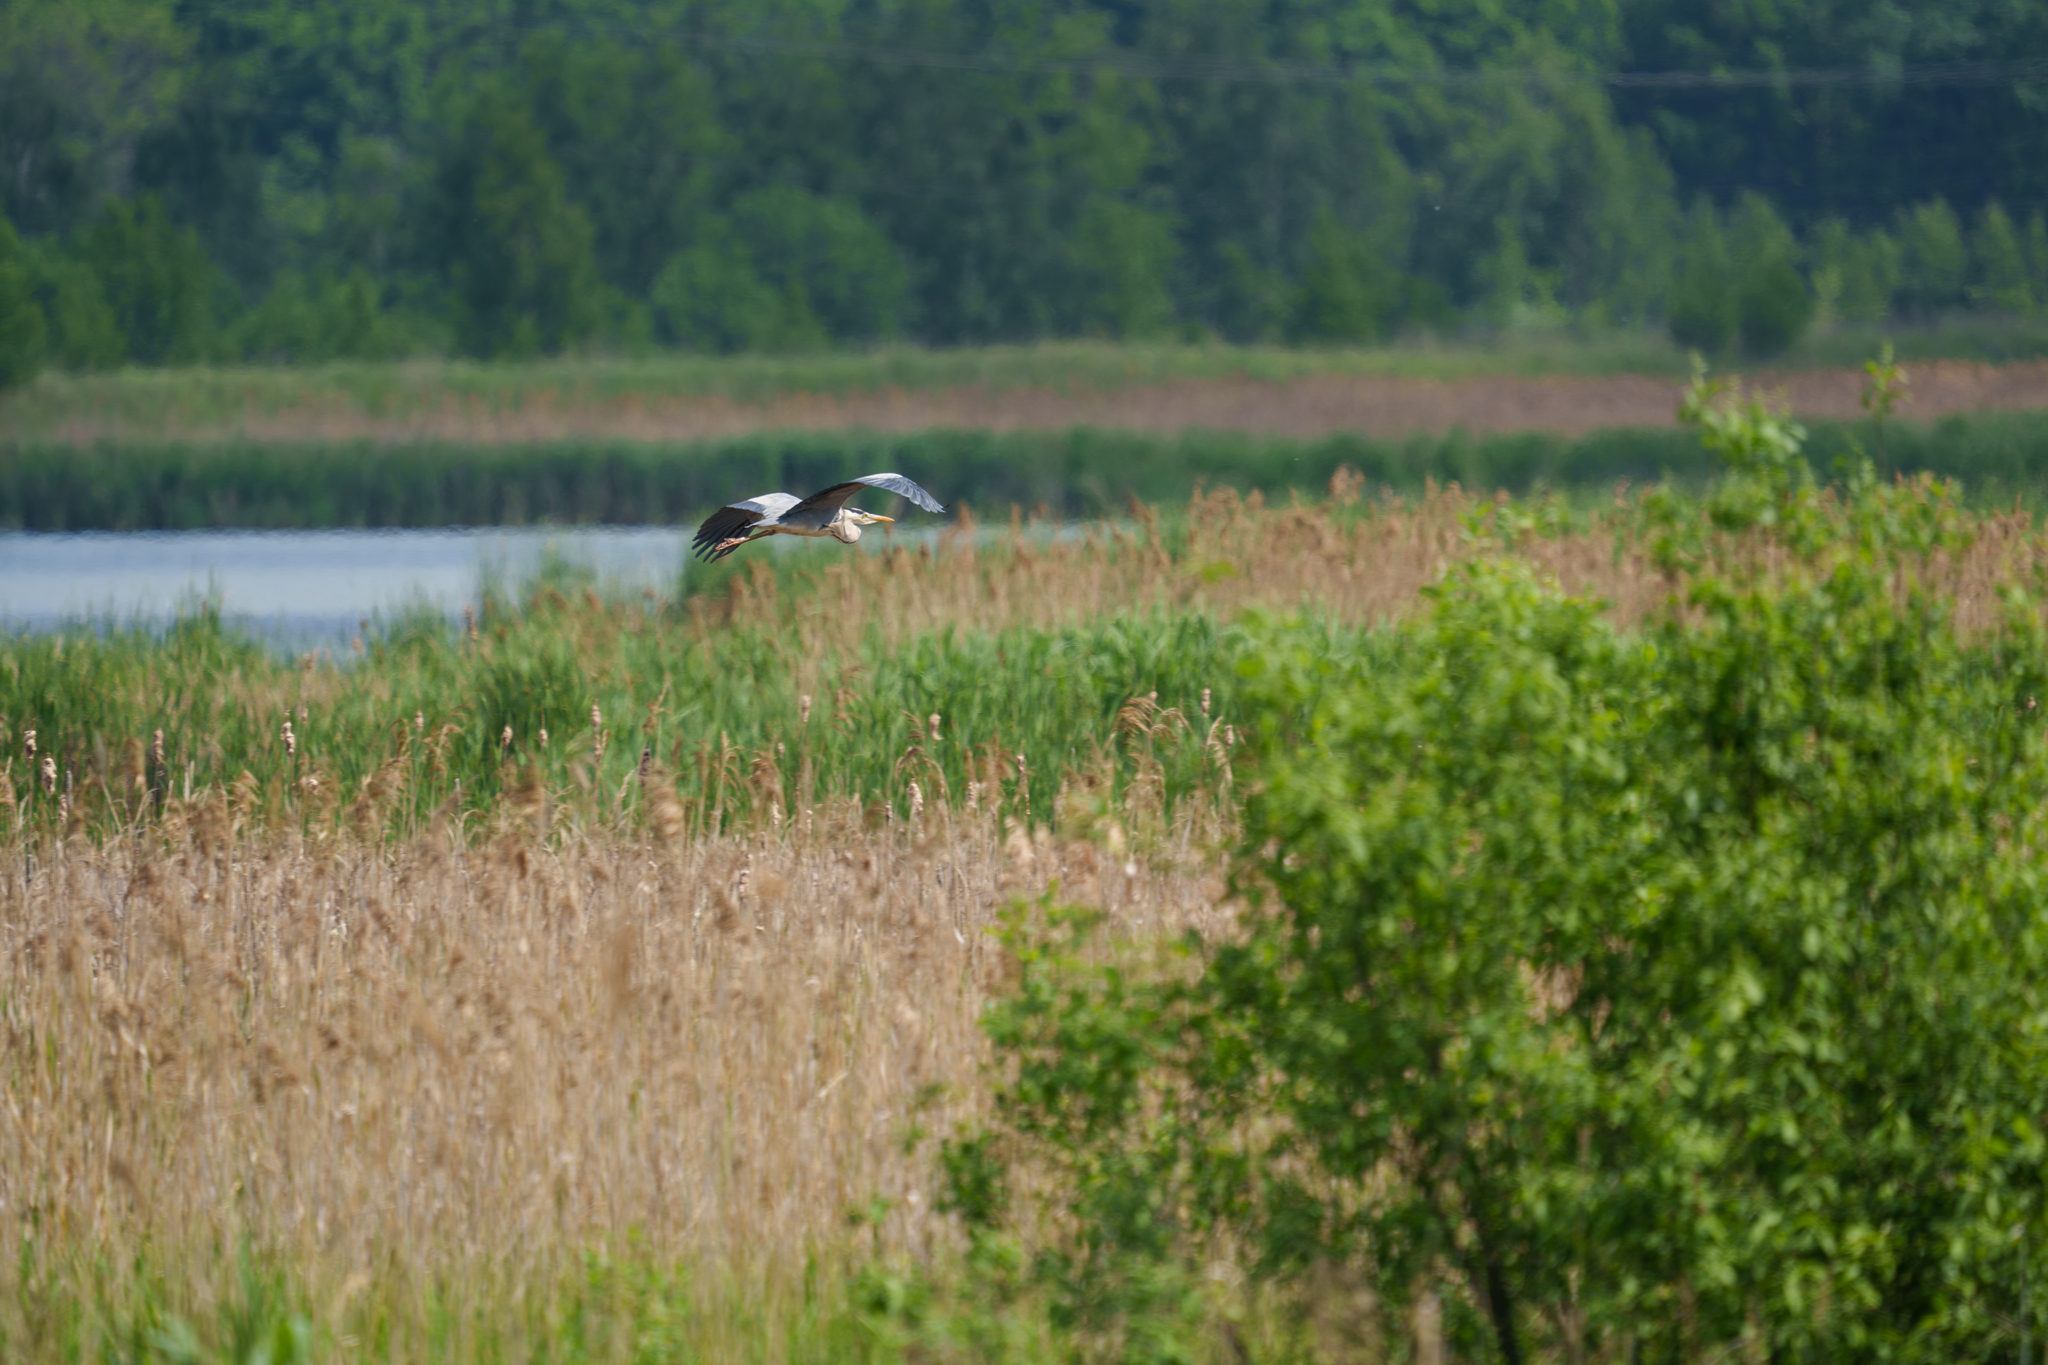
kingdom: Animalia
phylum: Chordata
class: Aves
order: Pelecaniformes
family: Ardeidae
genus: Ardea
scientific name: Ardea cinerea
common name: Grey heron
